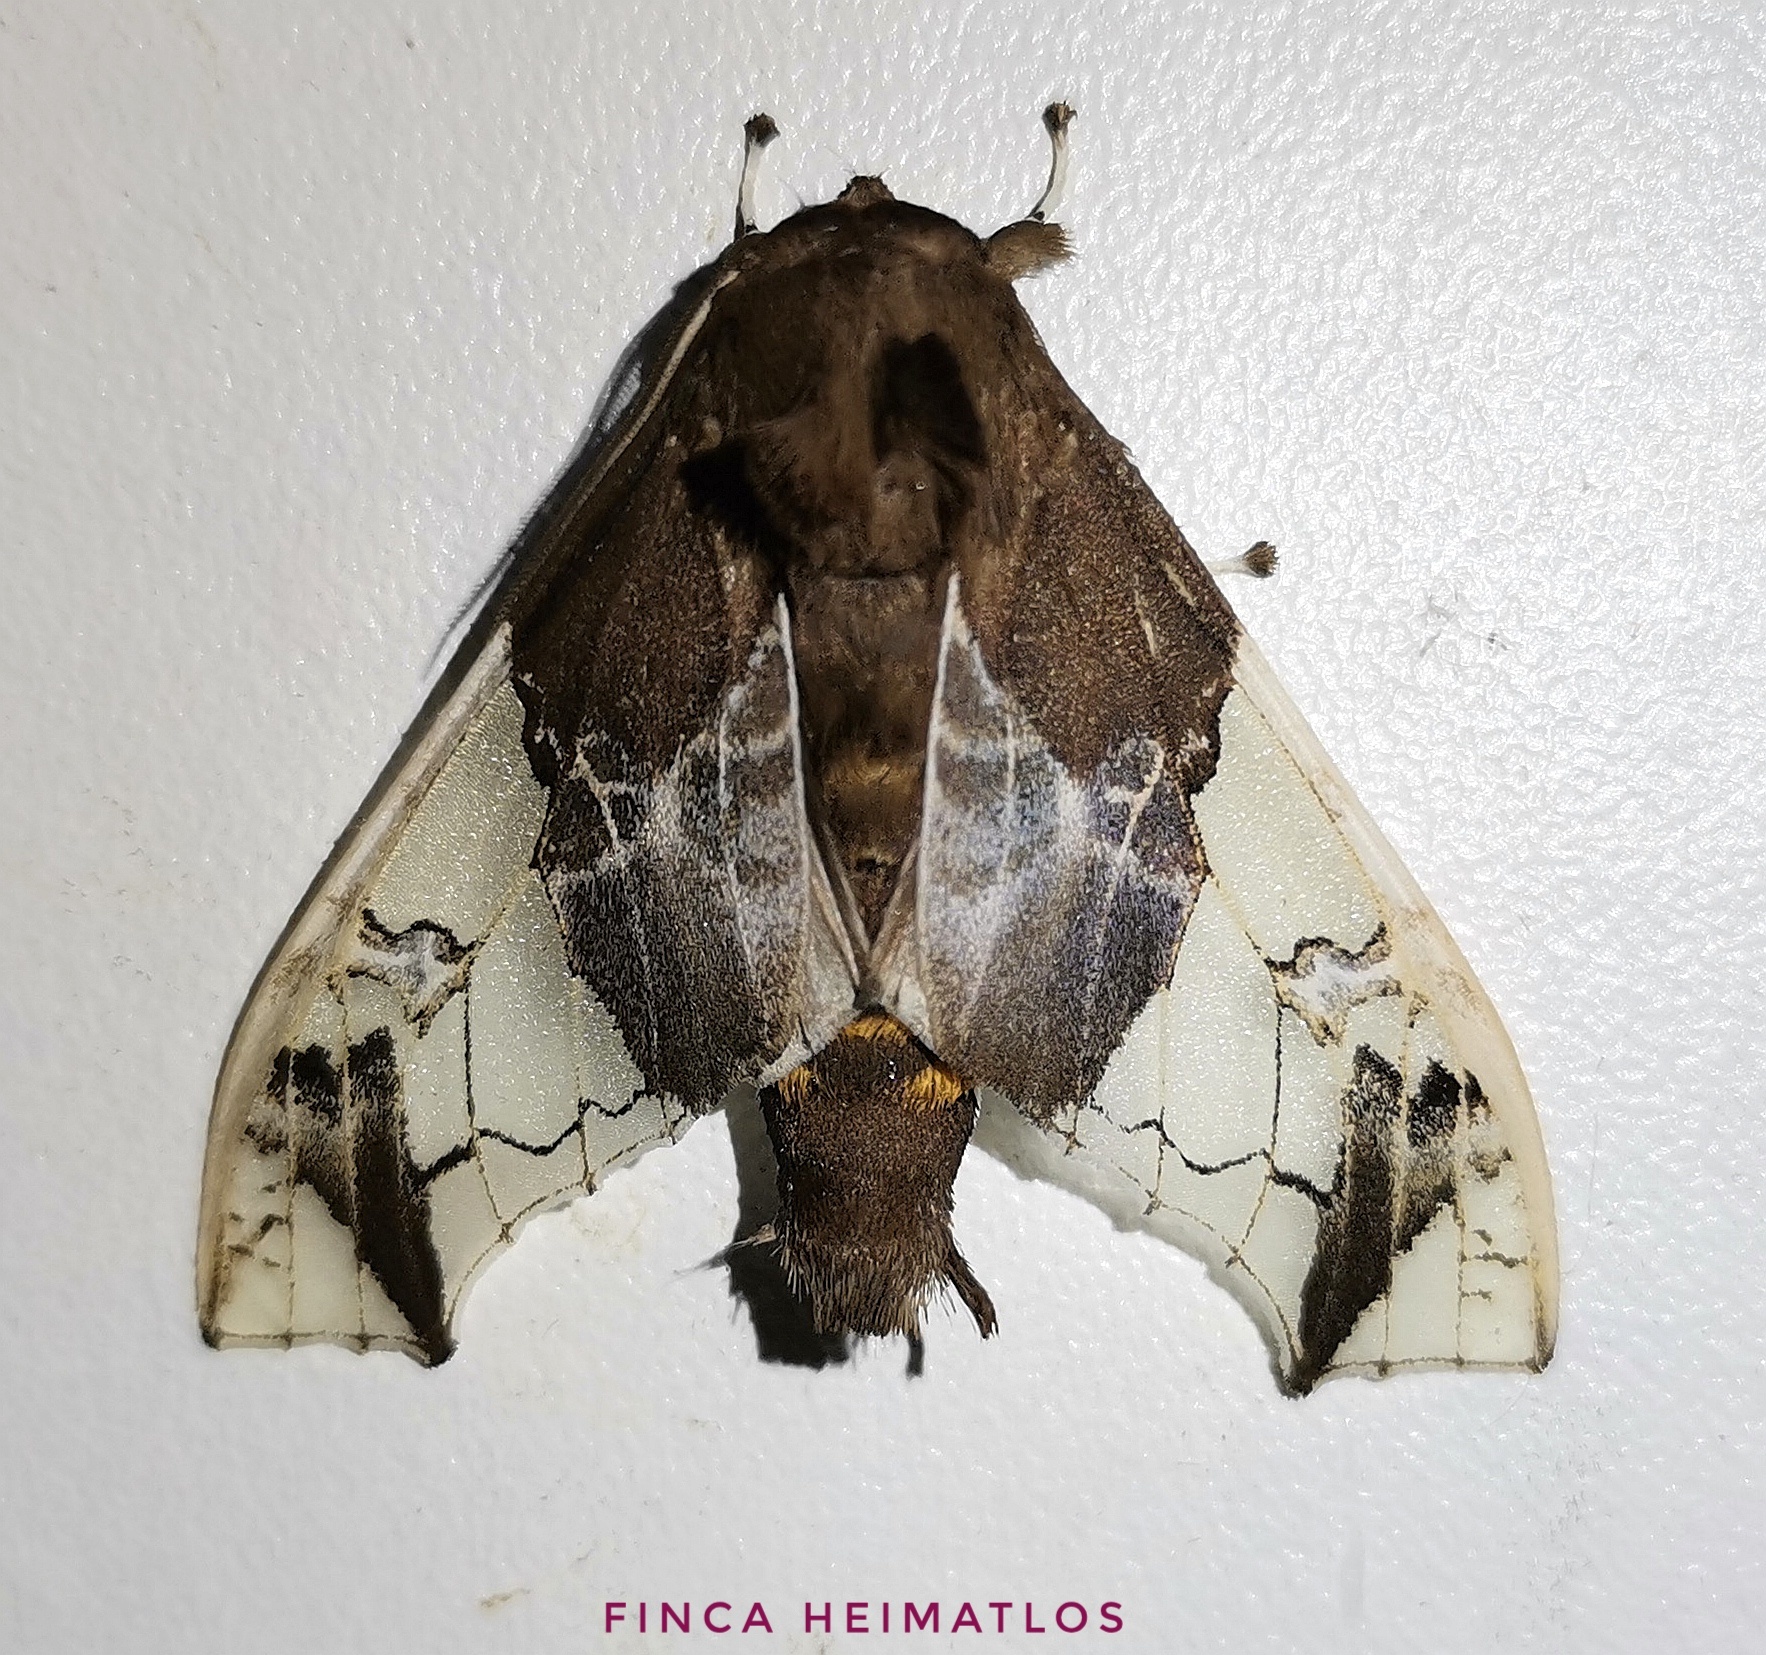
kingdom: Animalia
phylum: Arthropoda
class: Insecta
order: Lepidoptera
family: Erebidae
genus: Parathyris
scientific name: Parathyris semivitrea
